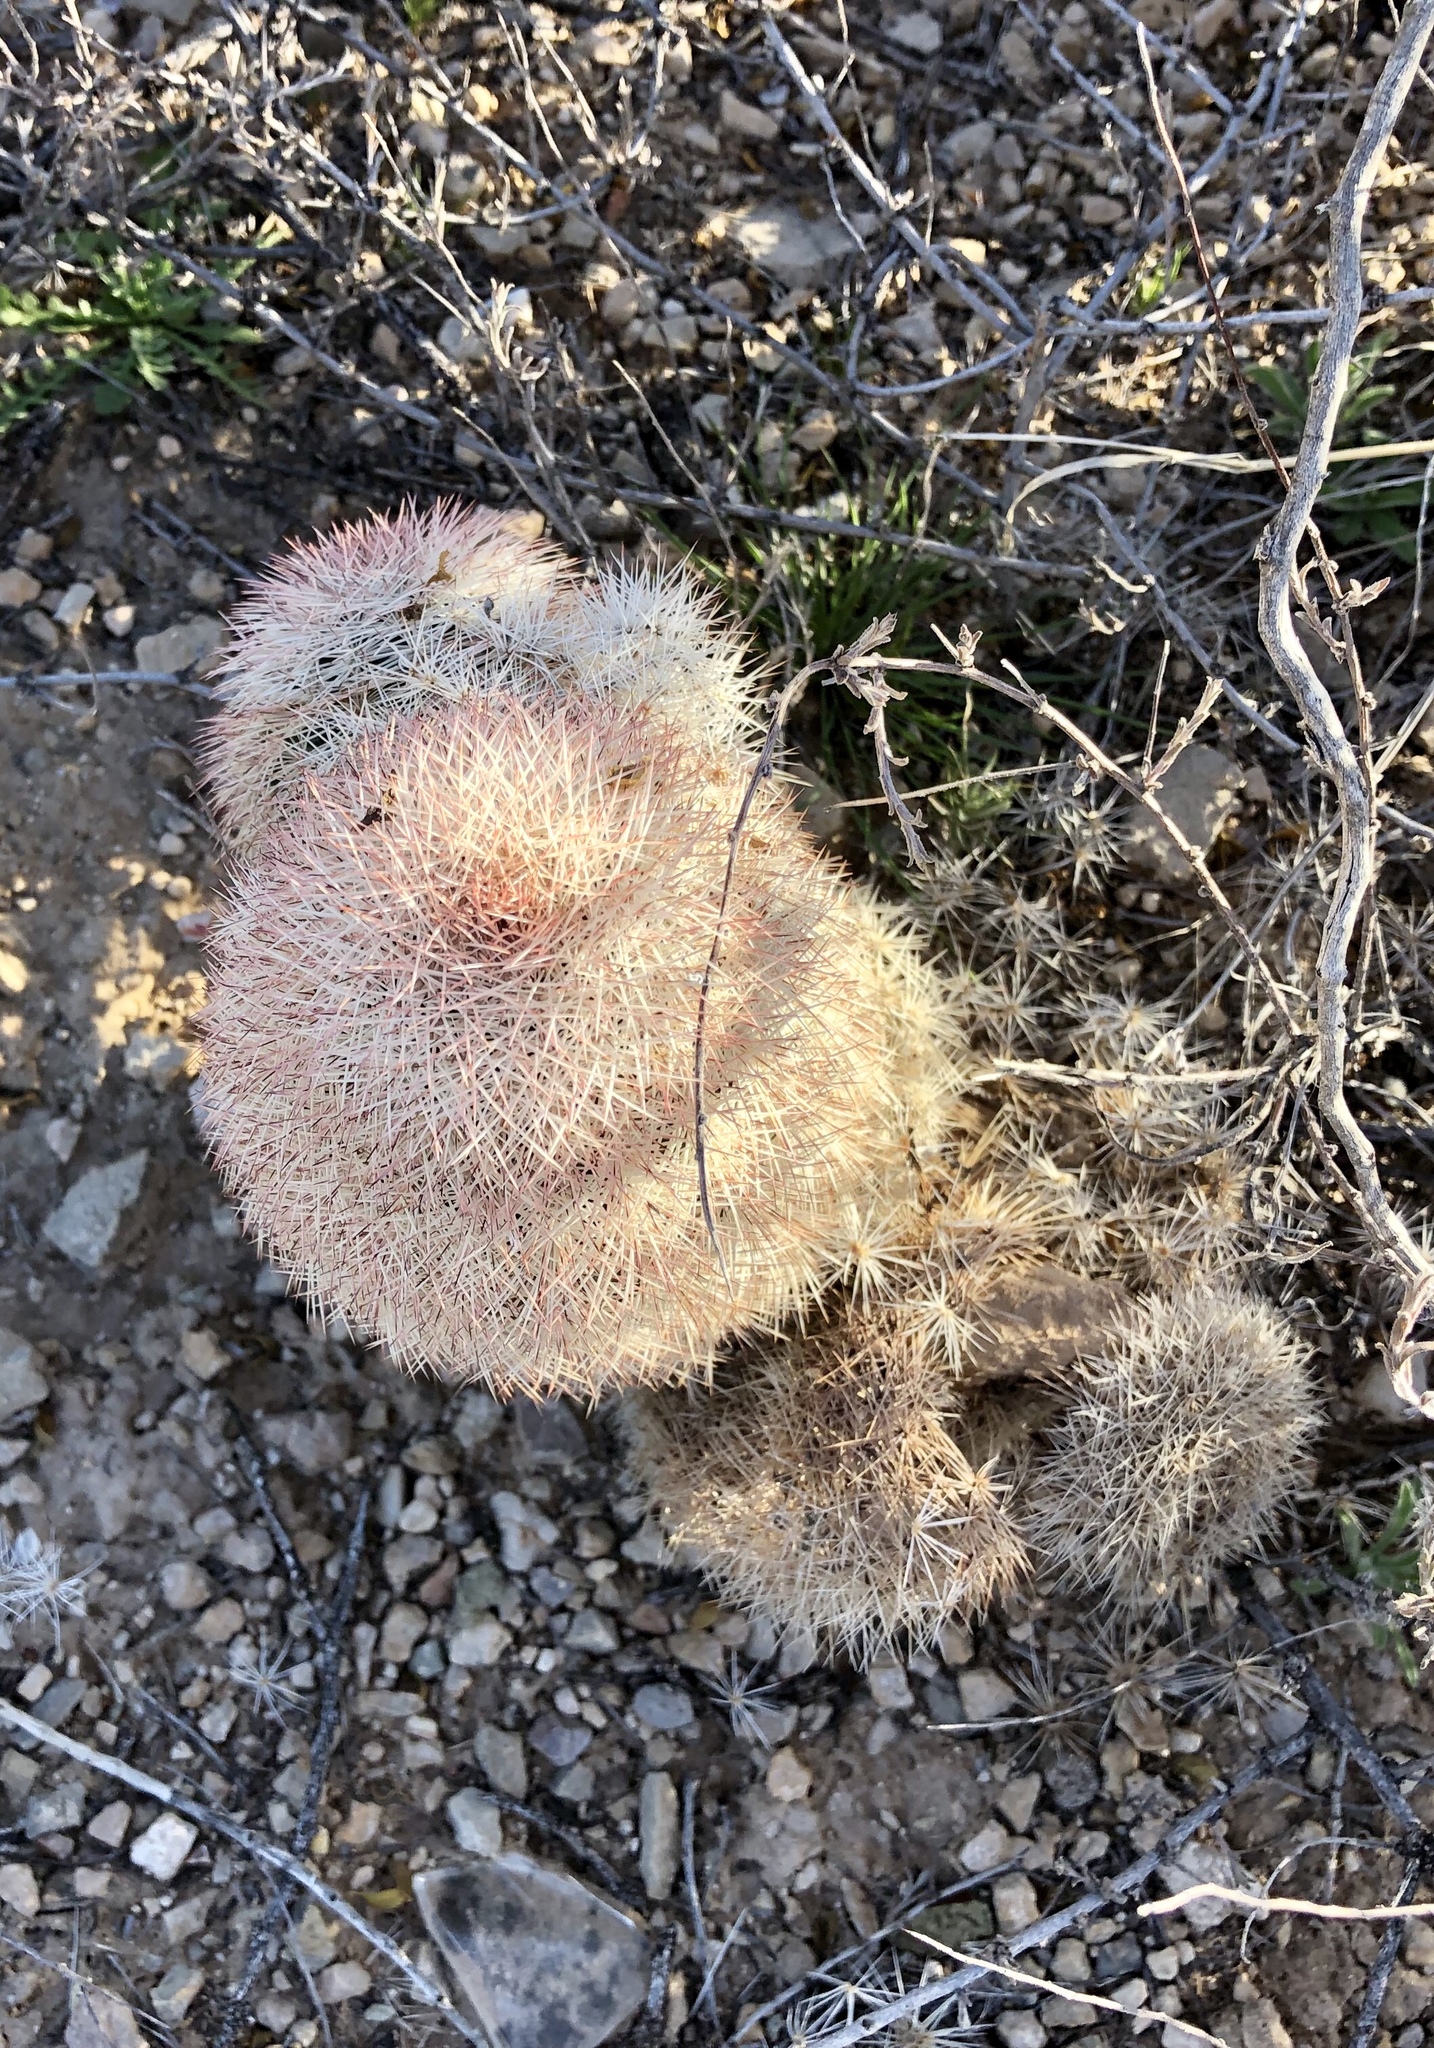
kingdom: Plantae
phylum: Tracheophyta
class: Magnoliopsida
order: Caryophyllales
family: Cactaceae
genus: Echinocereus
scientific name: Echinocereus dasyacanthus
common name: Spiny hedgehog cactus
